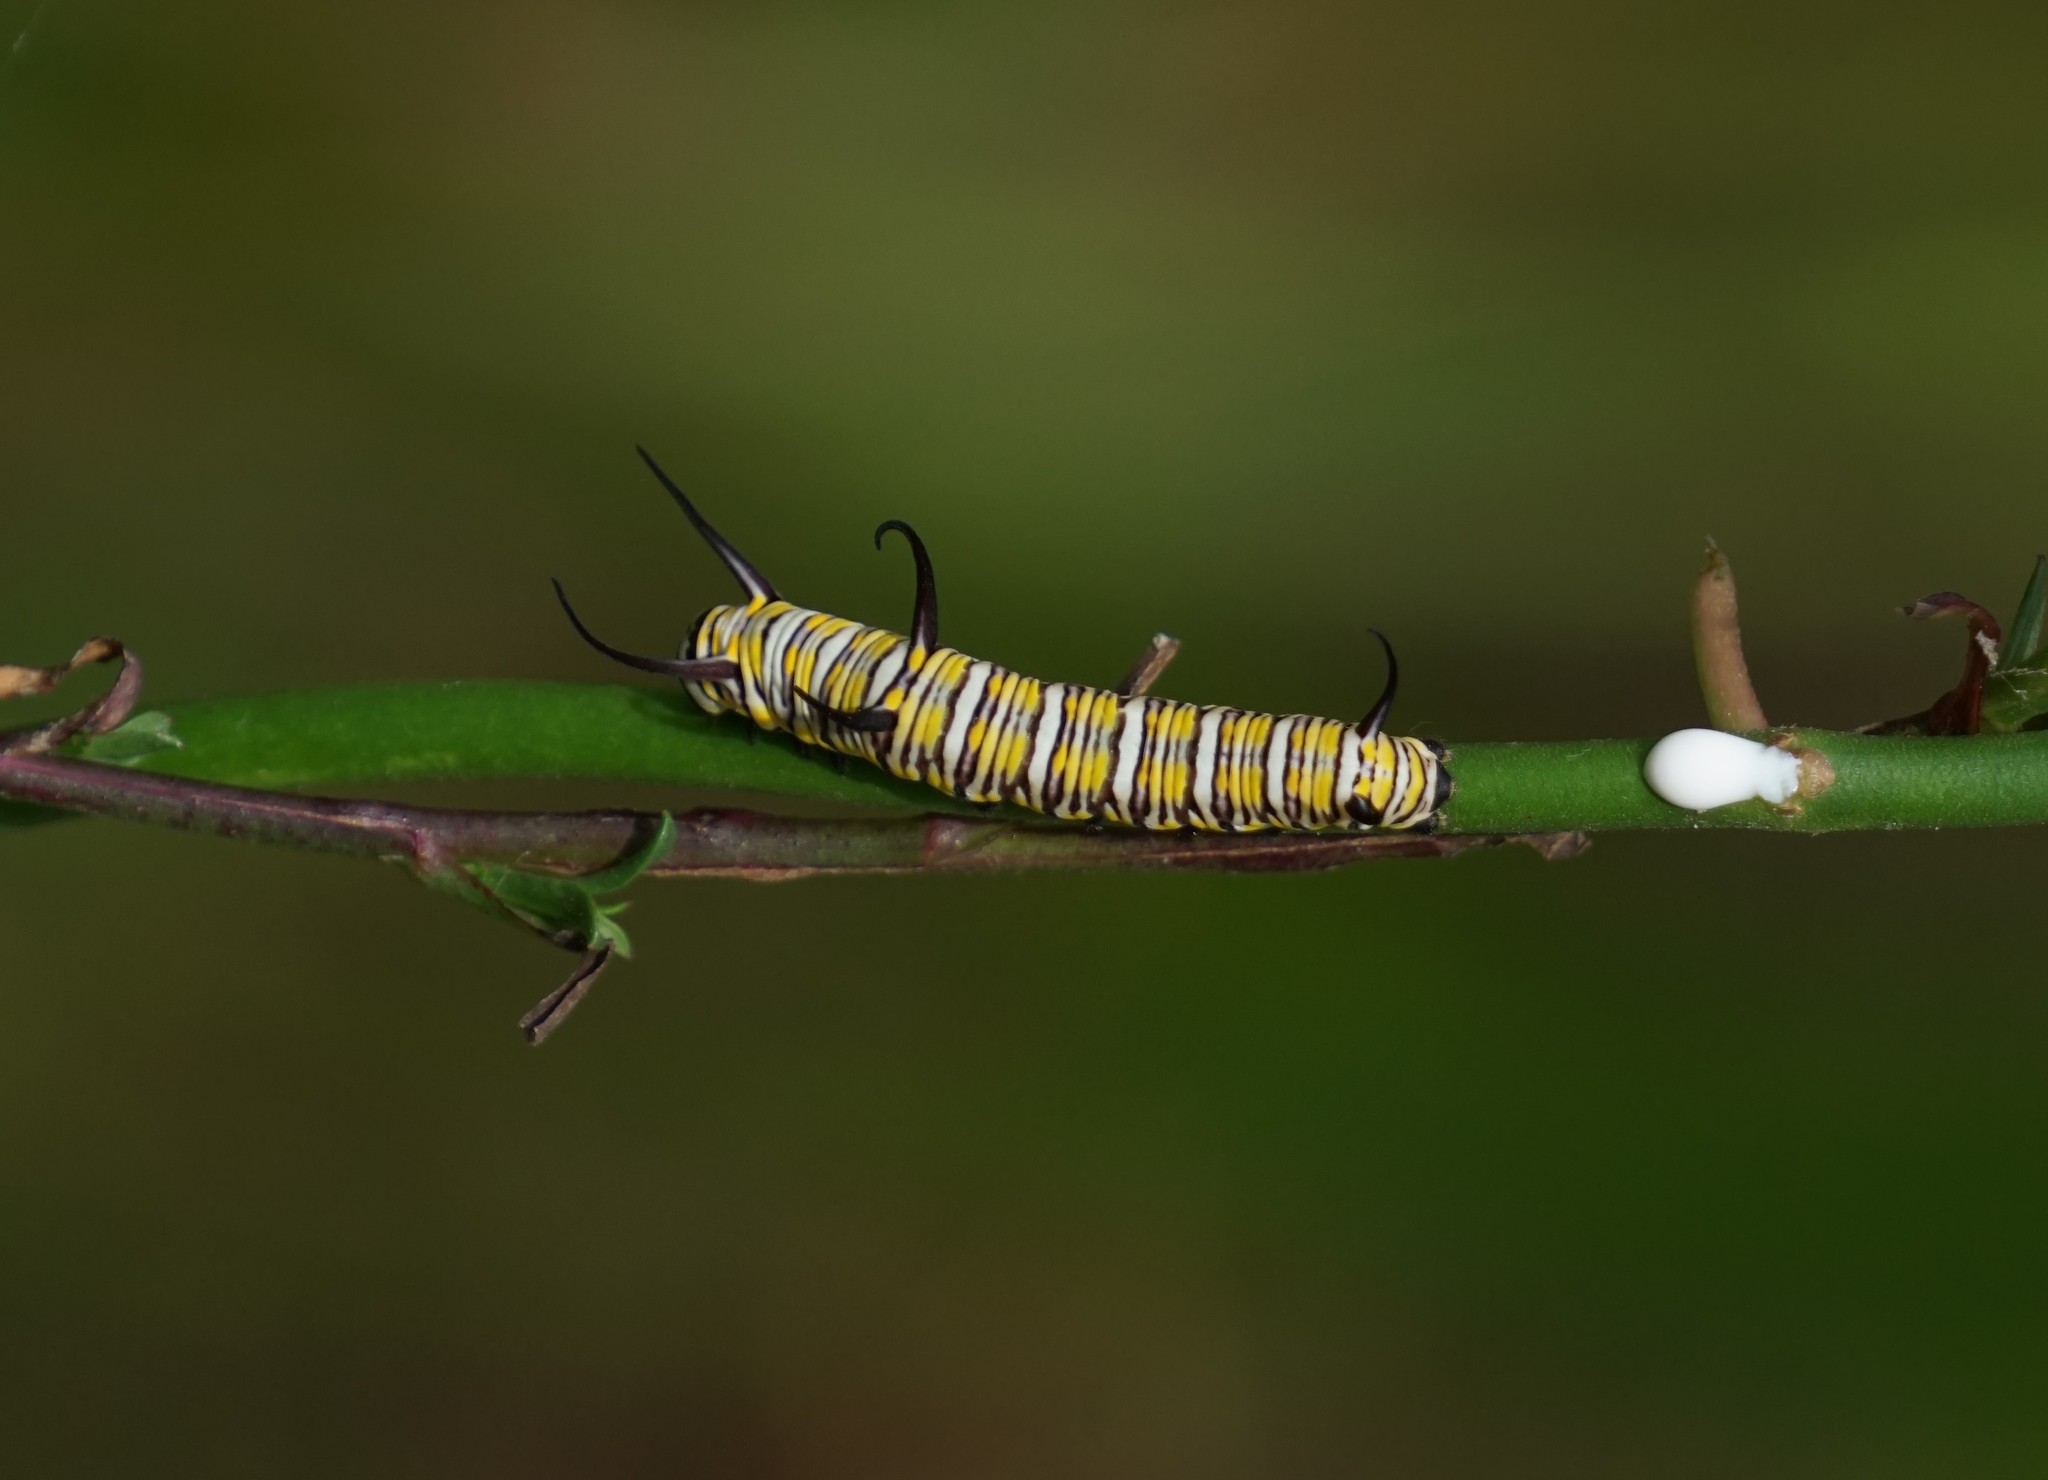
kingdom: Animalia
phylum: Arthropoda
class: Insecta
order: Lepidoptera
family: Nymphalidae
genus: Danaus
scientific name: Danaus gilippus
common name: Queen
